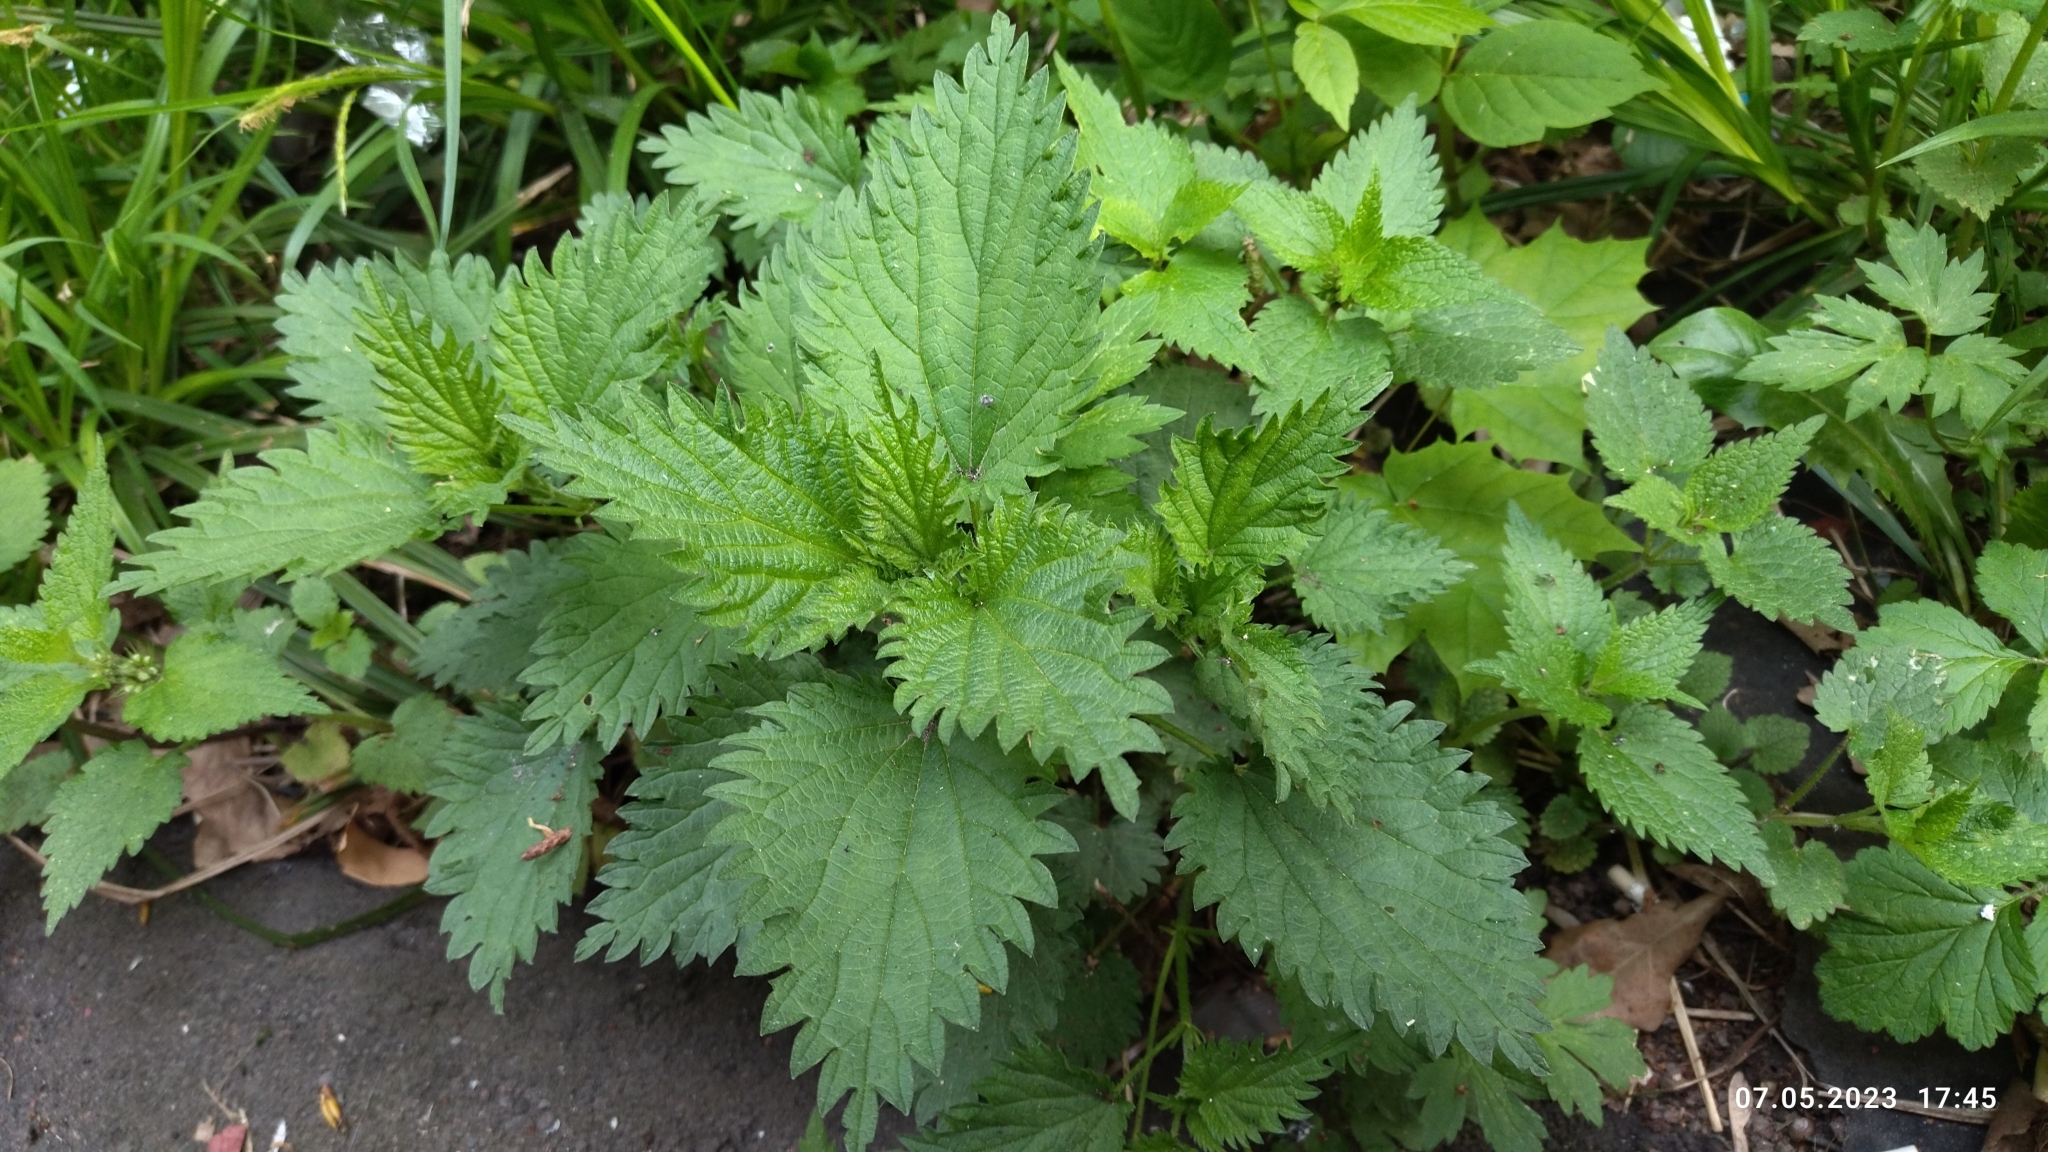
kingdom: Plantae
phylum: Tracheophyta
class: Magnoliopsida
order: Rosales
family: Urticaceae
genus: Urtica
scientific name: Urtica dioica
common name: Common nettle
